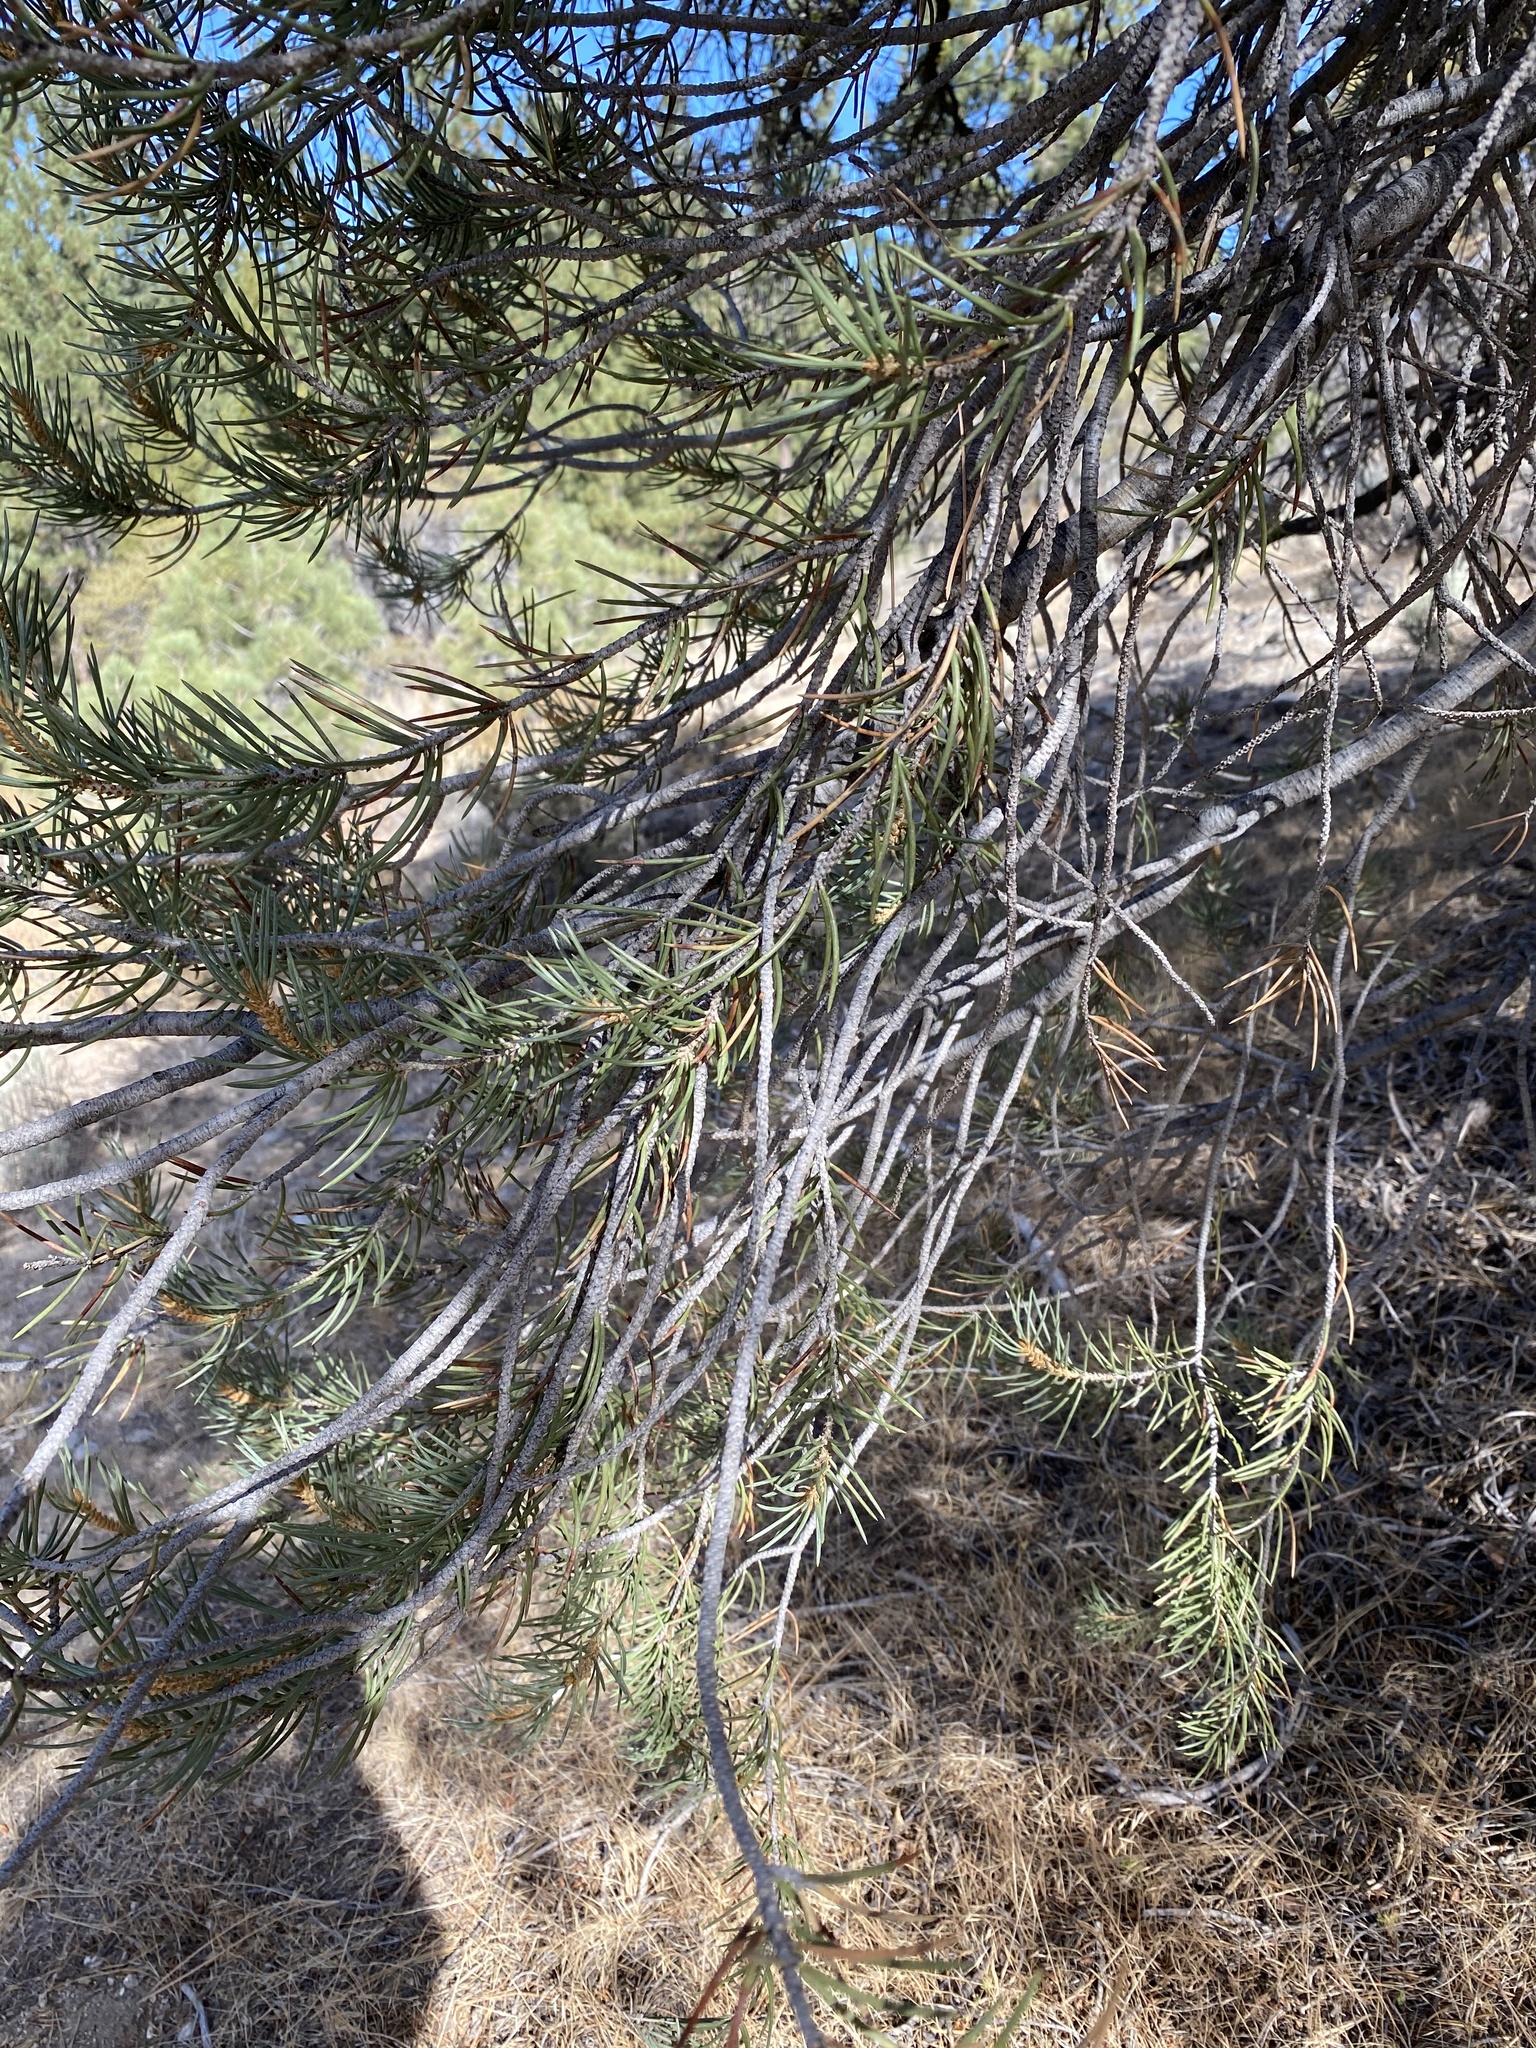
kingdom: Plantae
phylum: Tracheophyta
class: Pinopsida
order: Pinales
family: Pinaceae
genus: Pinus
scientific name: Pinus monophylla
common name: One-leaved nut pine
